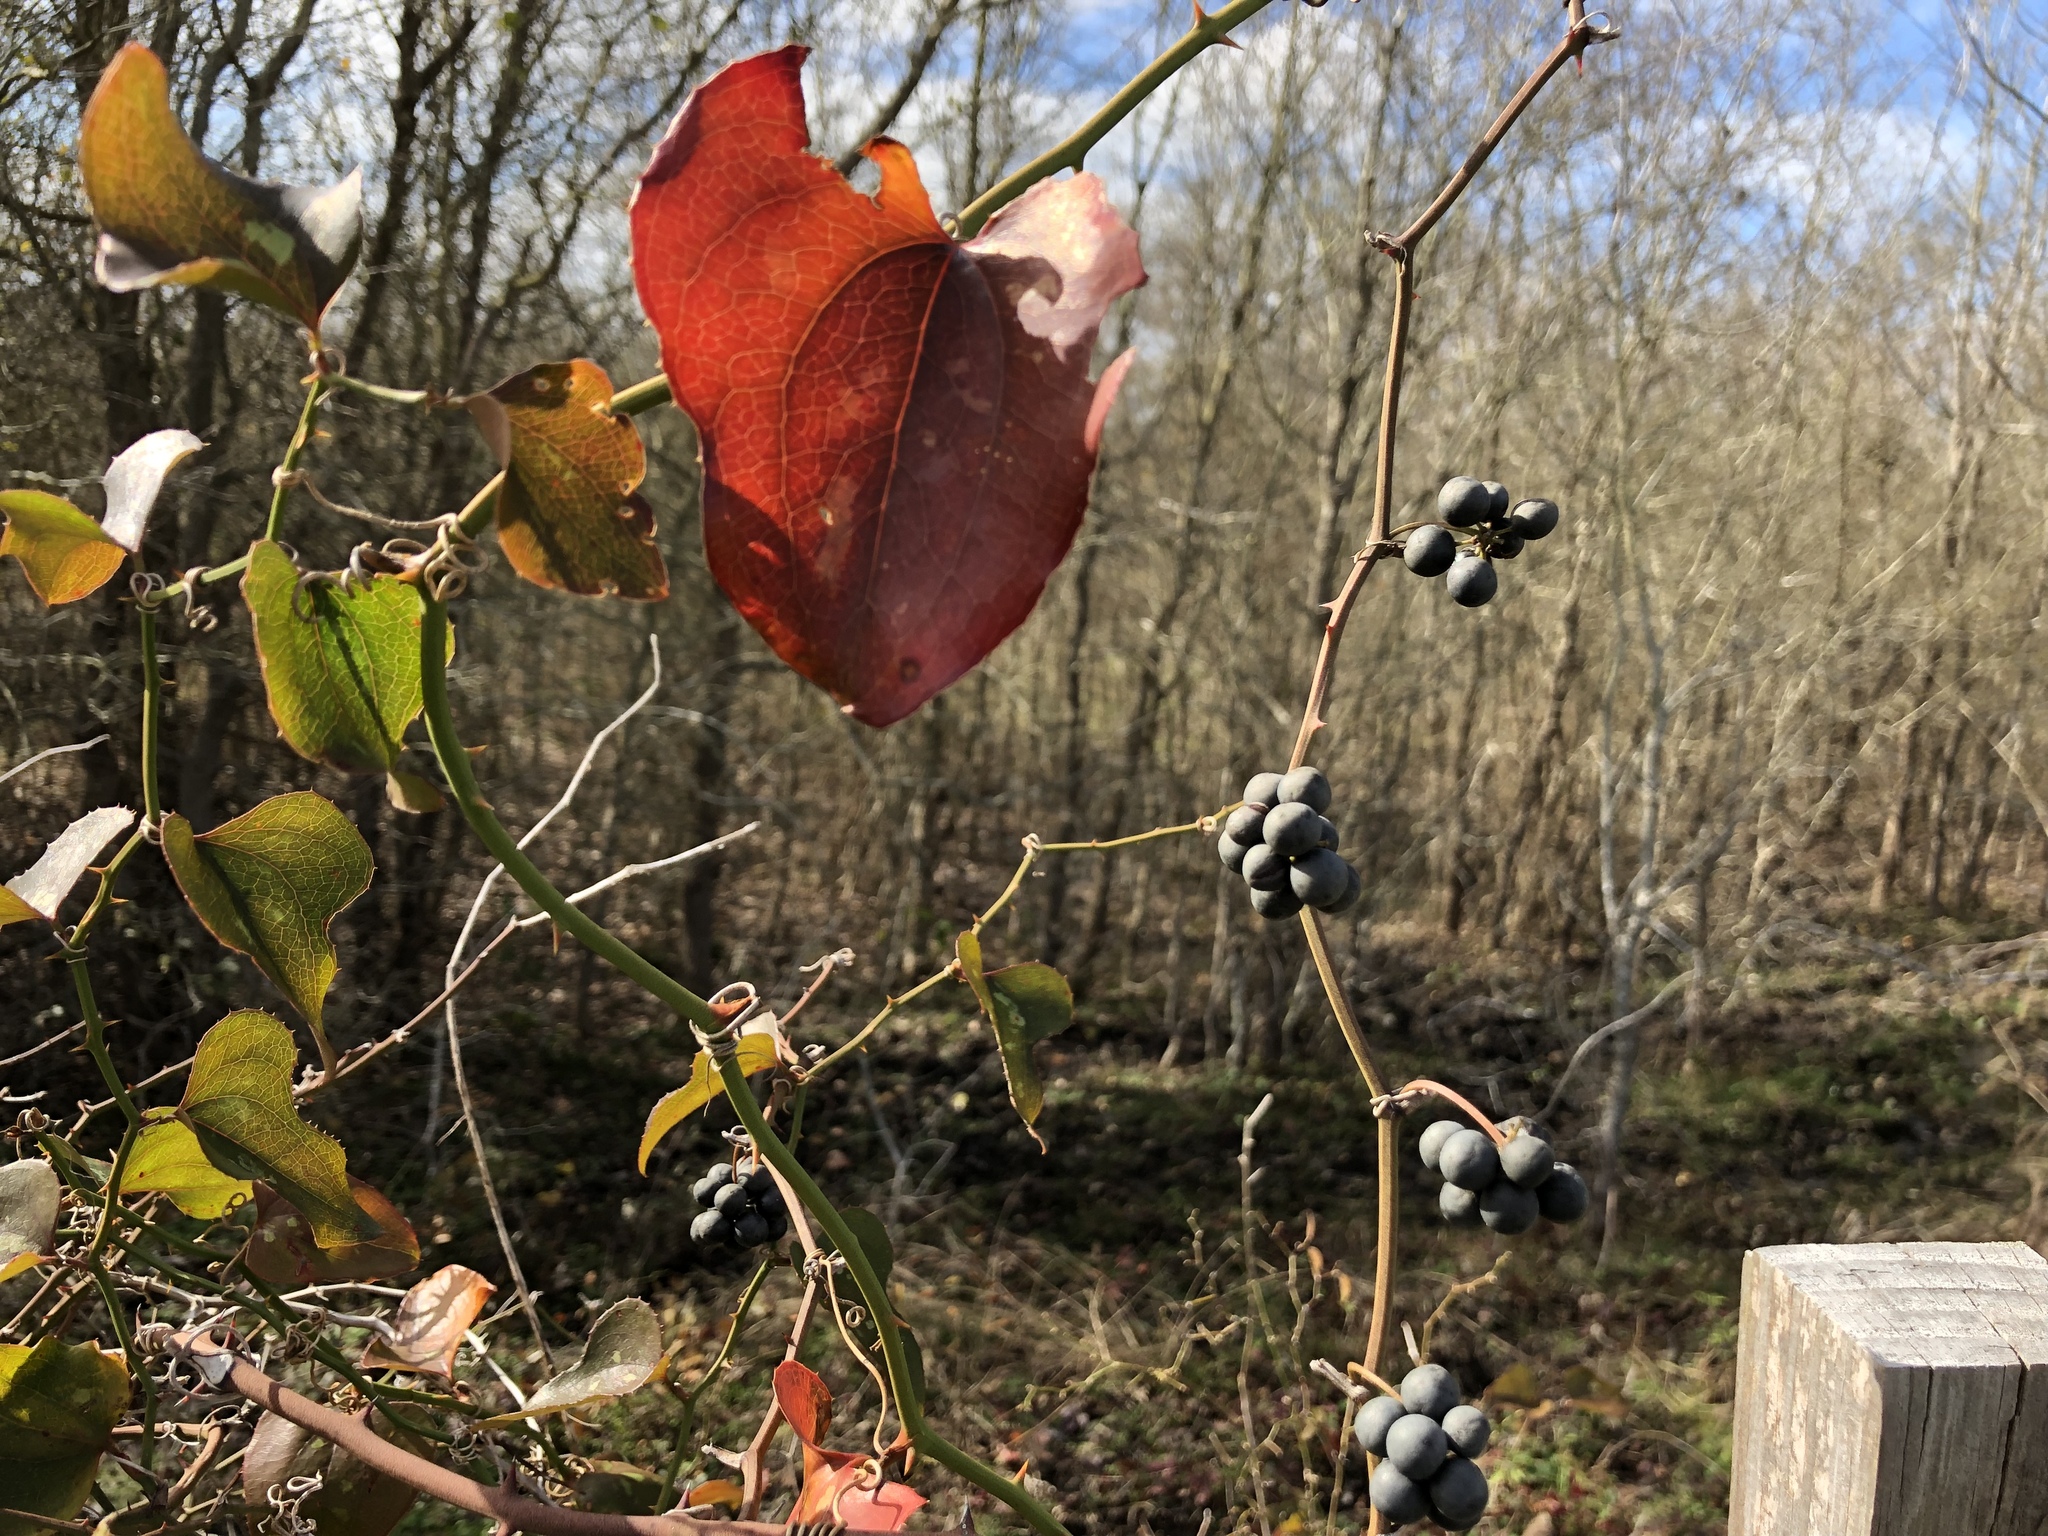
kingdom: Plantae
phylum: Tracheophyta
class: Liliopsida
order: Liliales
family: Smilacaceae
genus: Smilax
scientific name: Smilax bona-nox
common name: Catbrier
